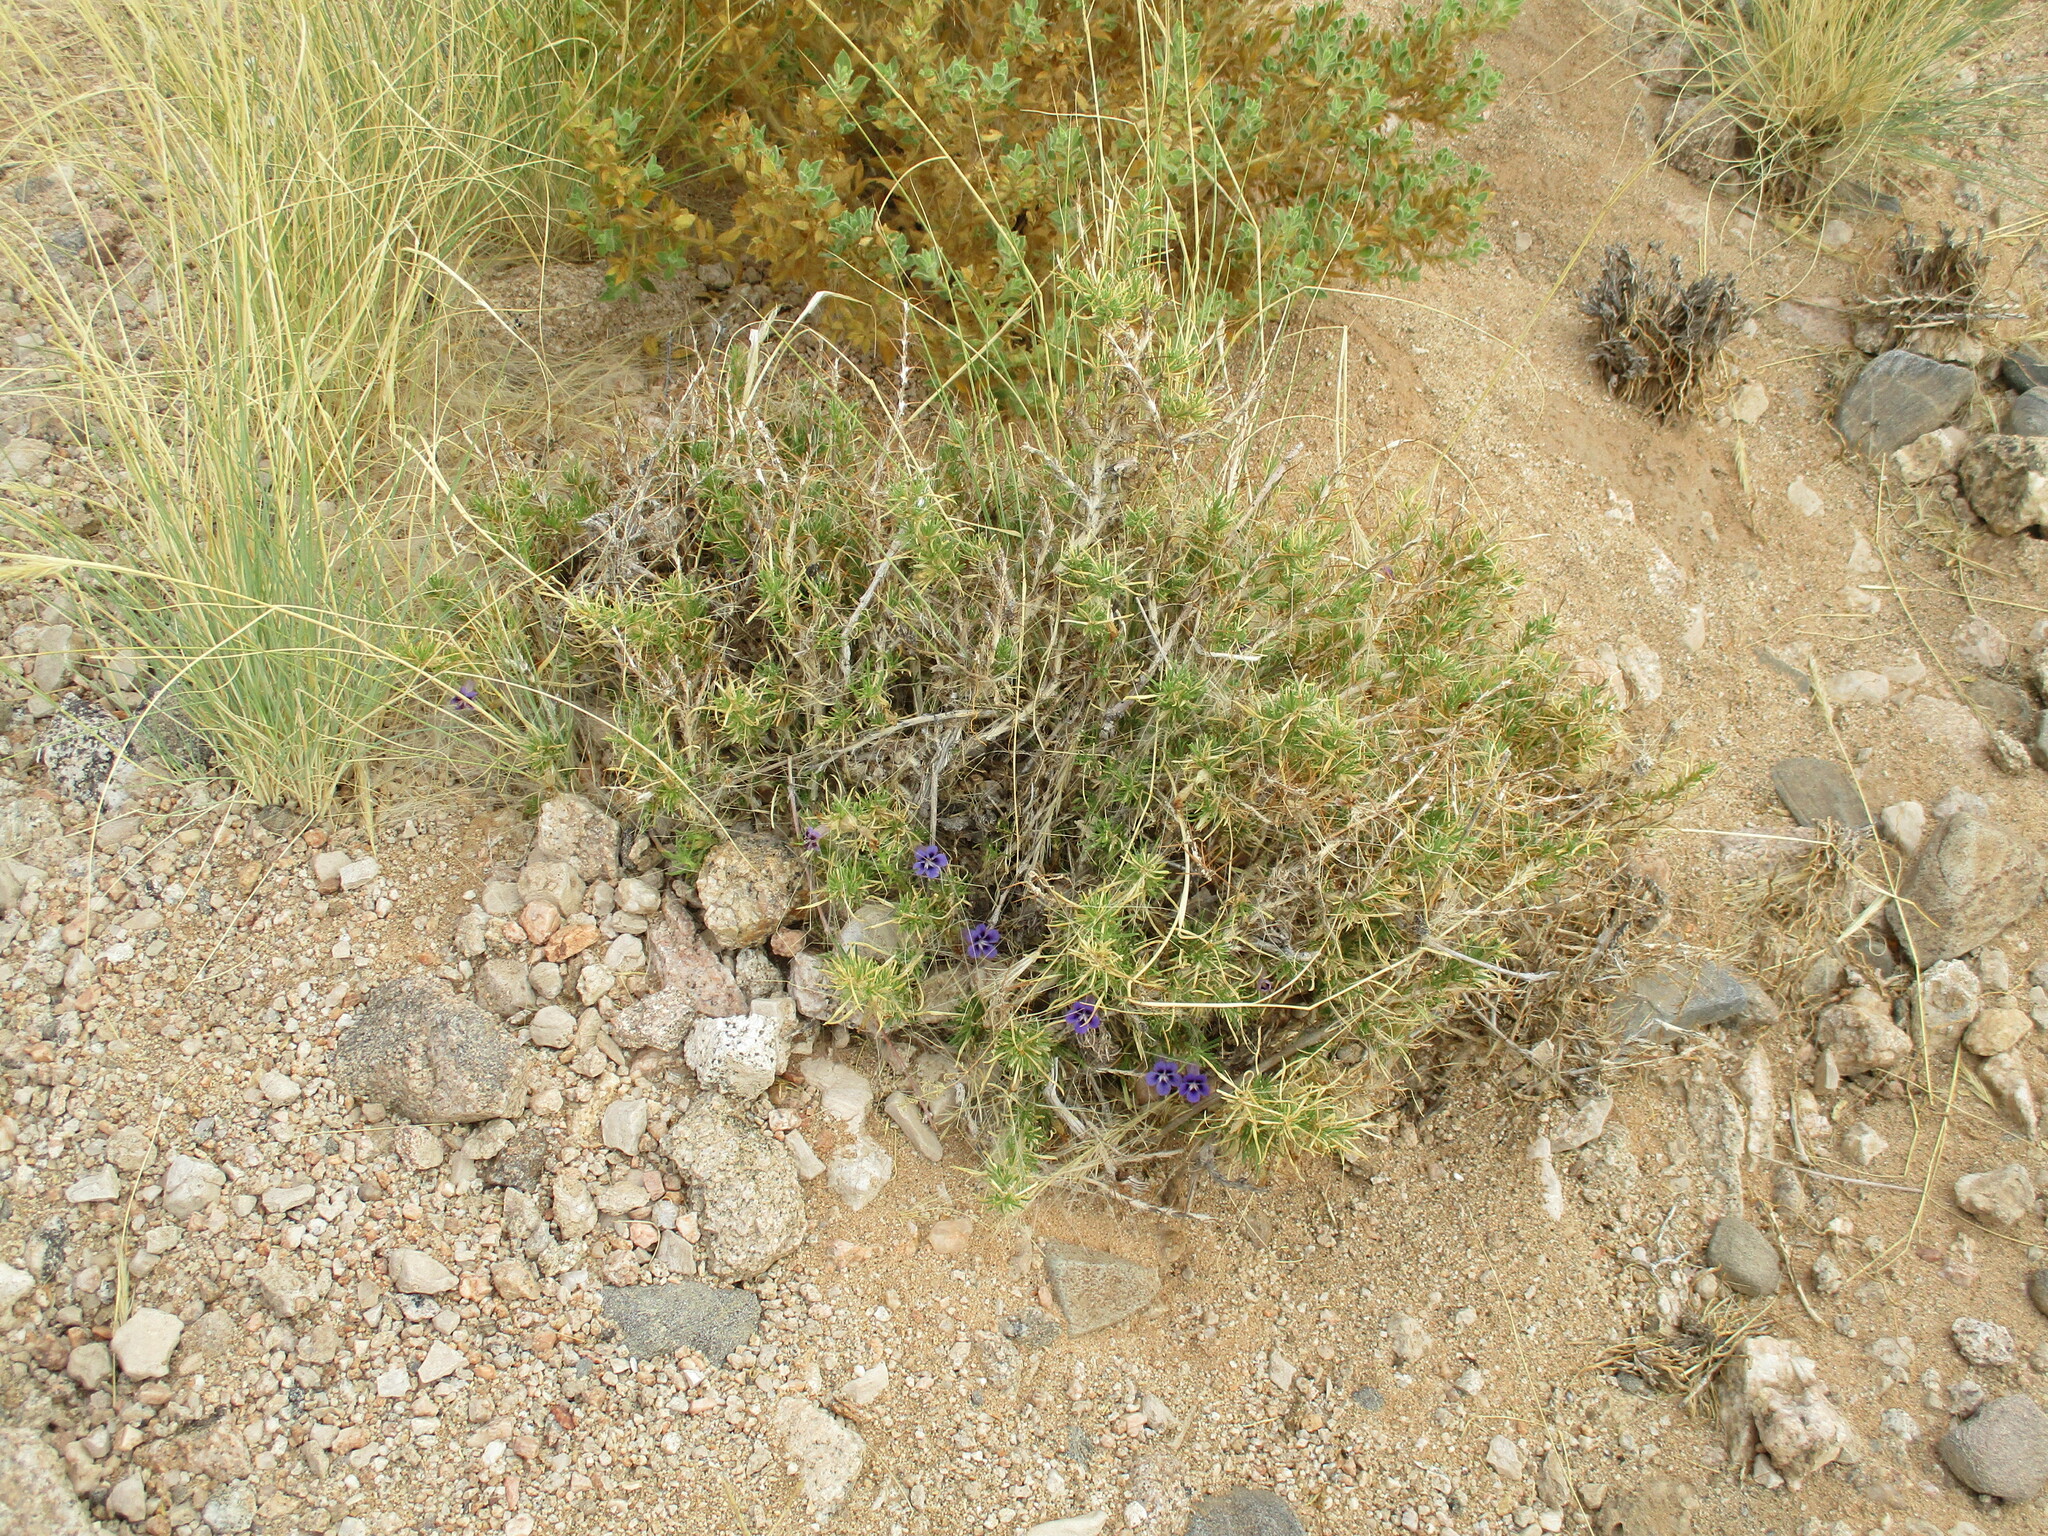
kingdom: Plantae
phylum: Tracheophyta
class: Magnoliopsida
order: Lamiales
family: Scrophulariaceae
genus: Aptosimum
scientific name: Aptosimum spinescens
